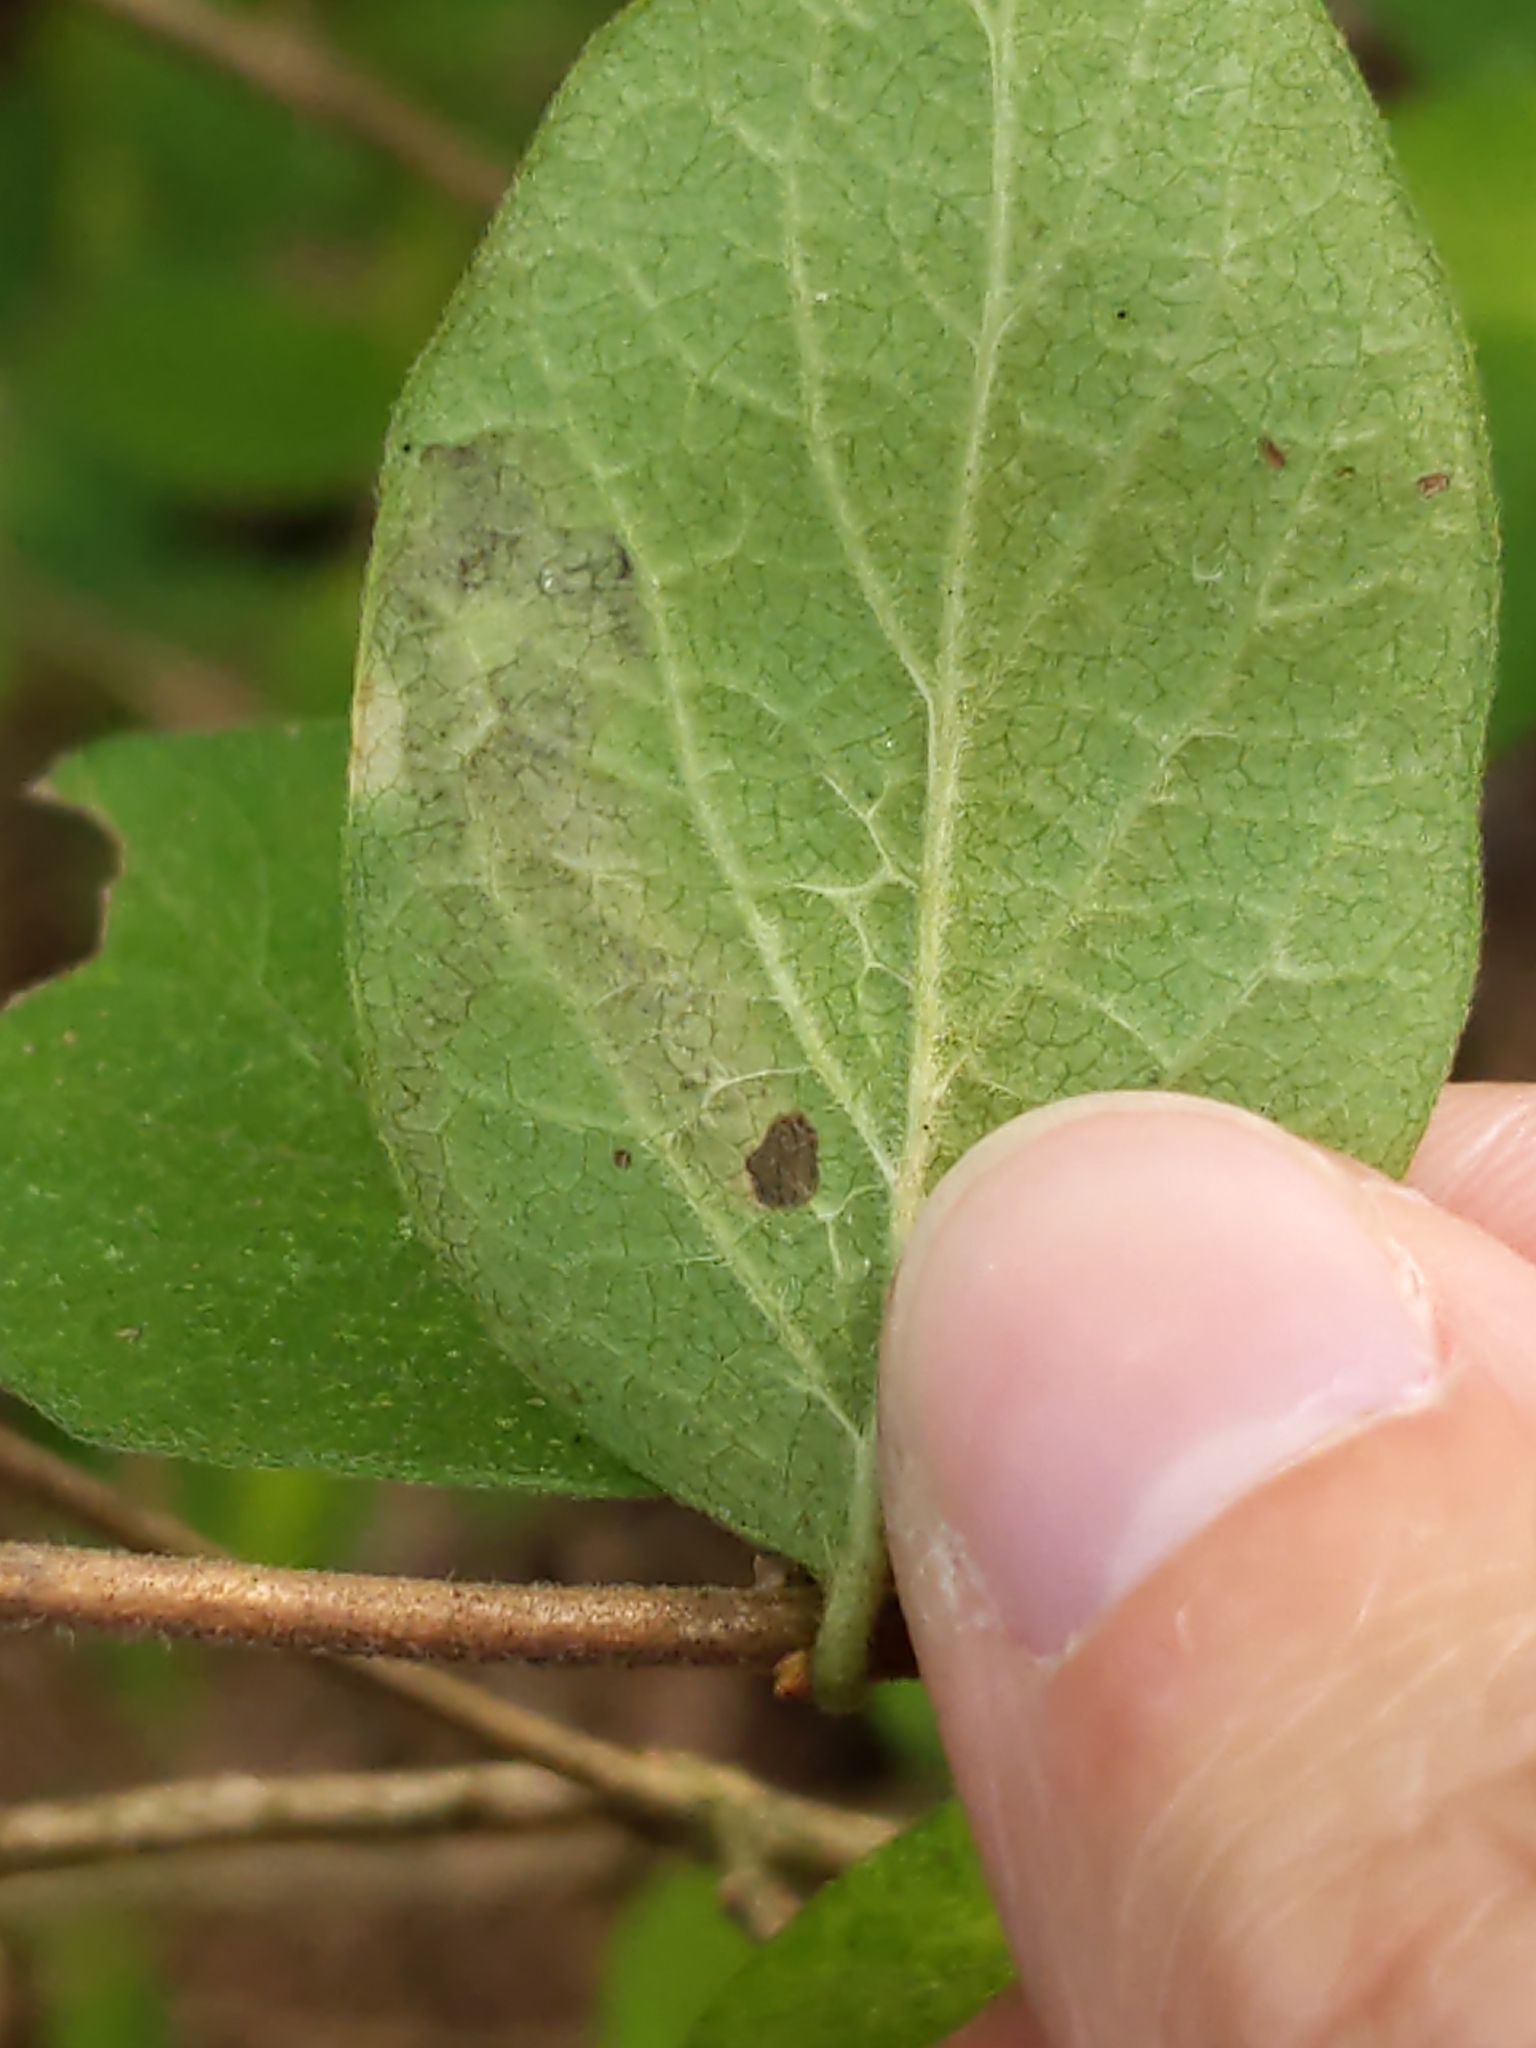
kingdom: Animalia
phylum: Arthropoda
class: Insecta
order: Diptera
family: Agromyzidae
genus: Aulagromyza
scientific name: Aulagromyza
